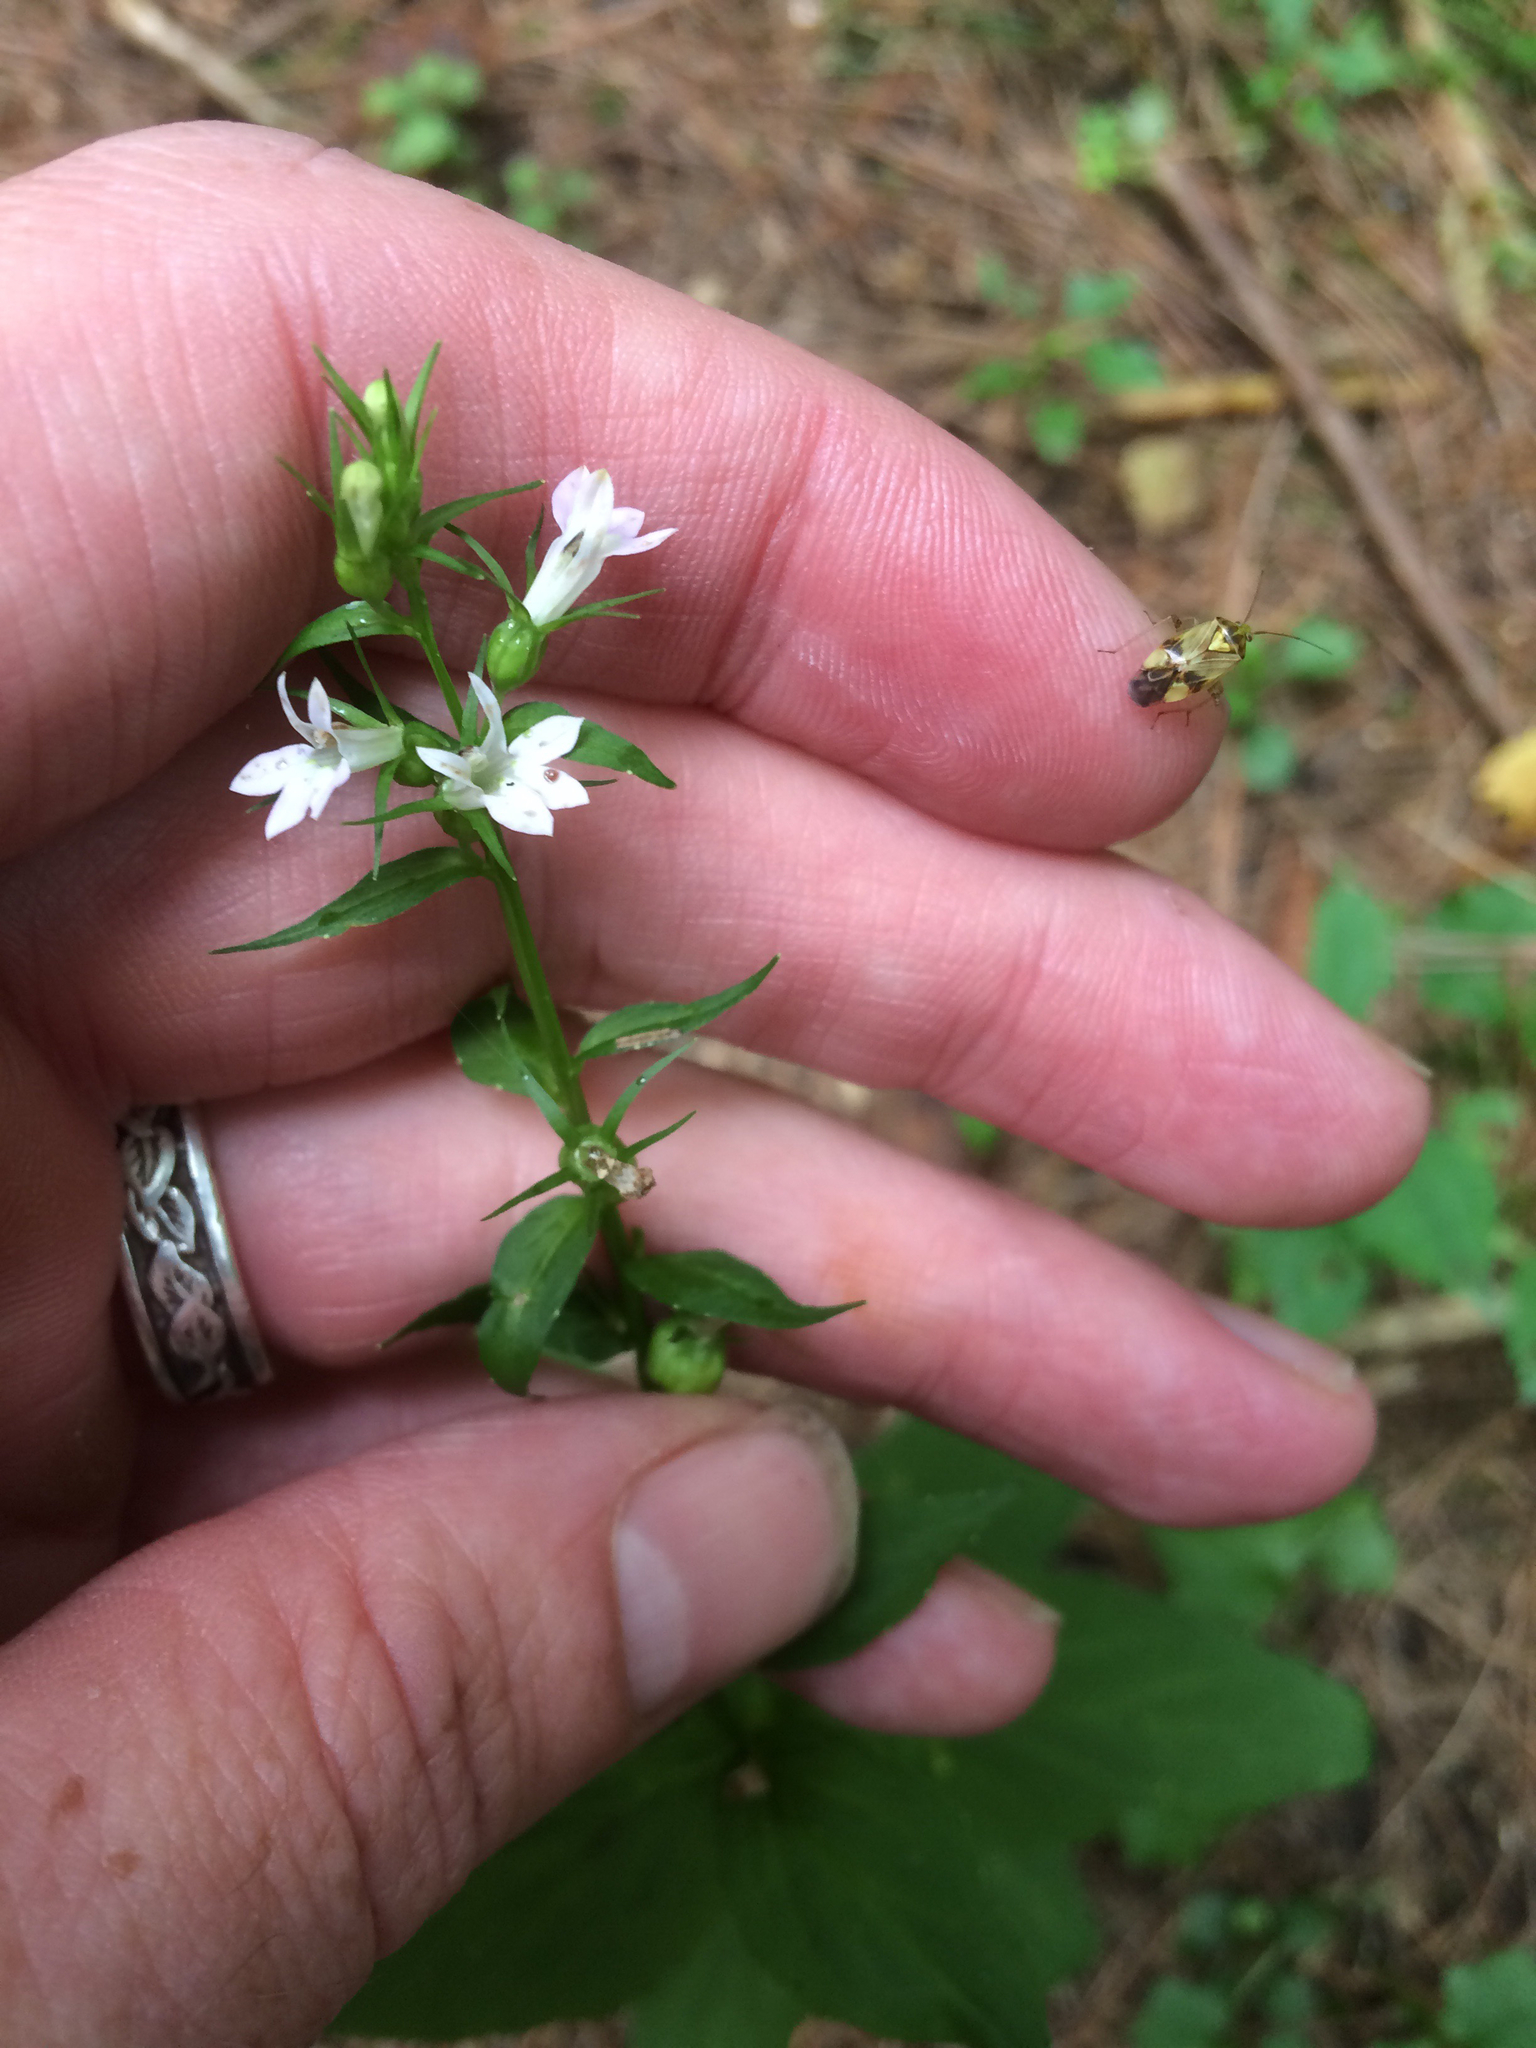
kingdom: Plantae
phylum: Tracheophyta
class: Magnoliopsida
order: Asterales
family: Campanulaceae
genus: Lobelia
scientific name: Lobelia inflata
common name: Indian tobacco
